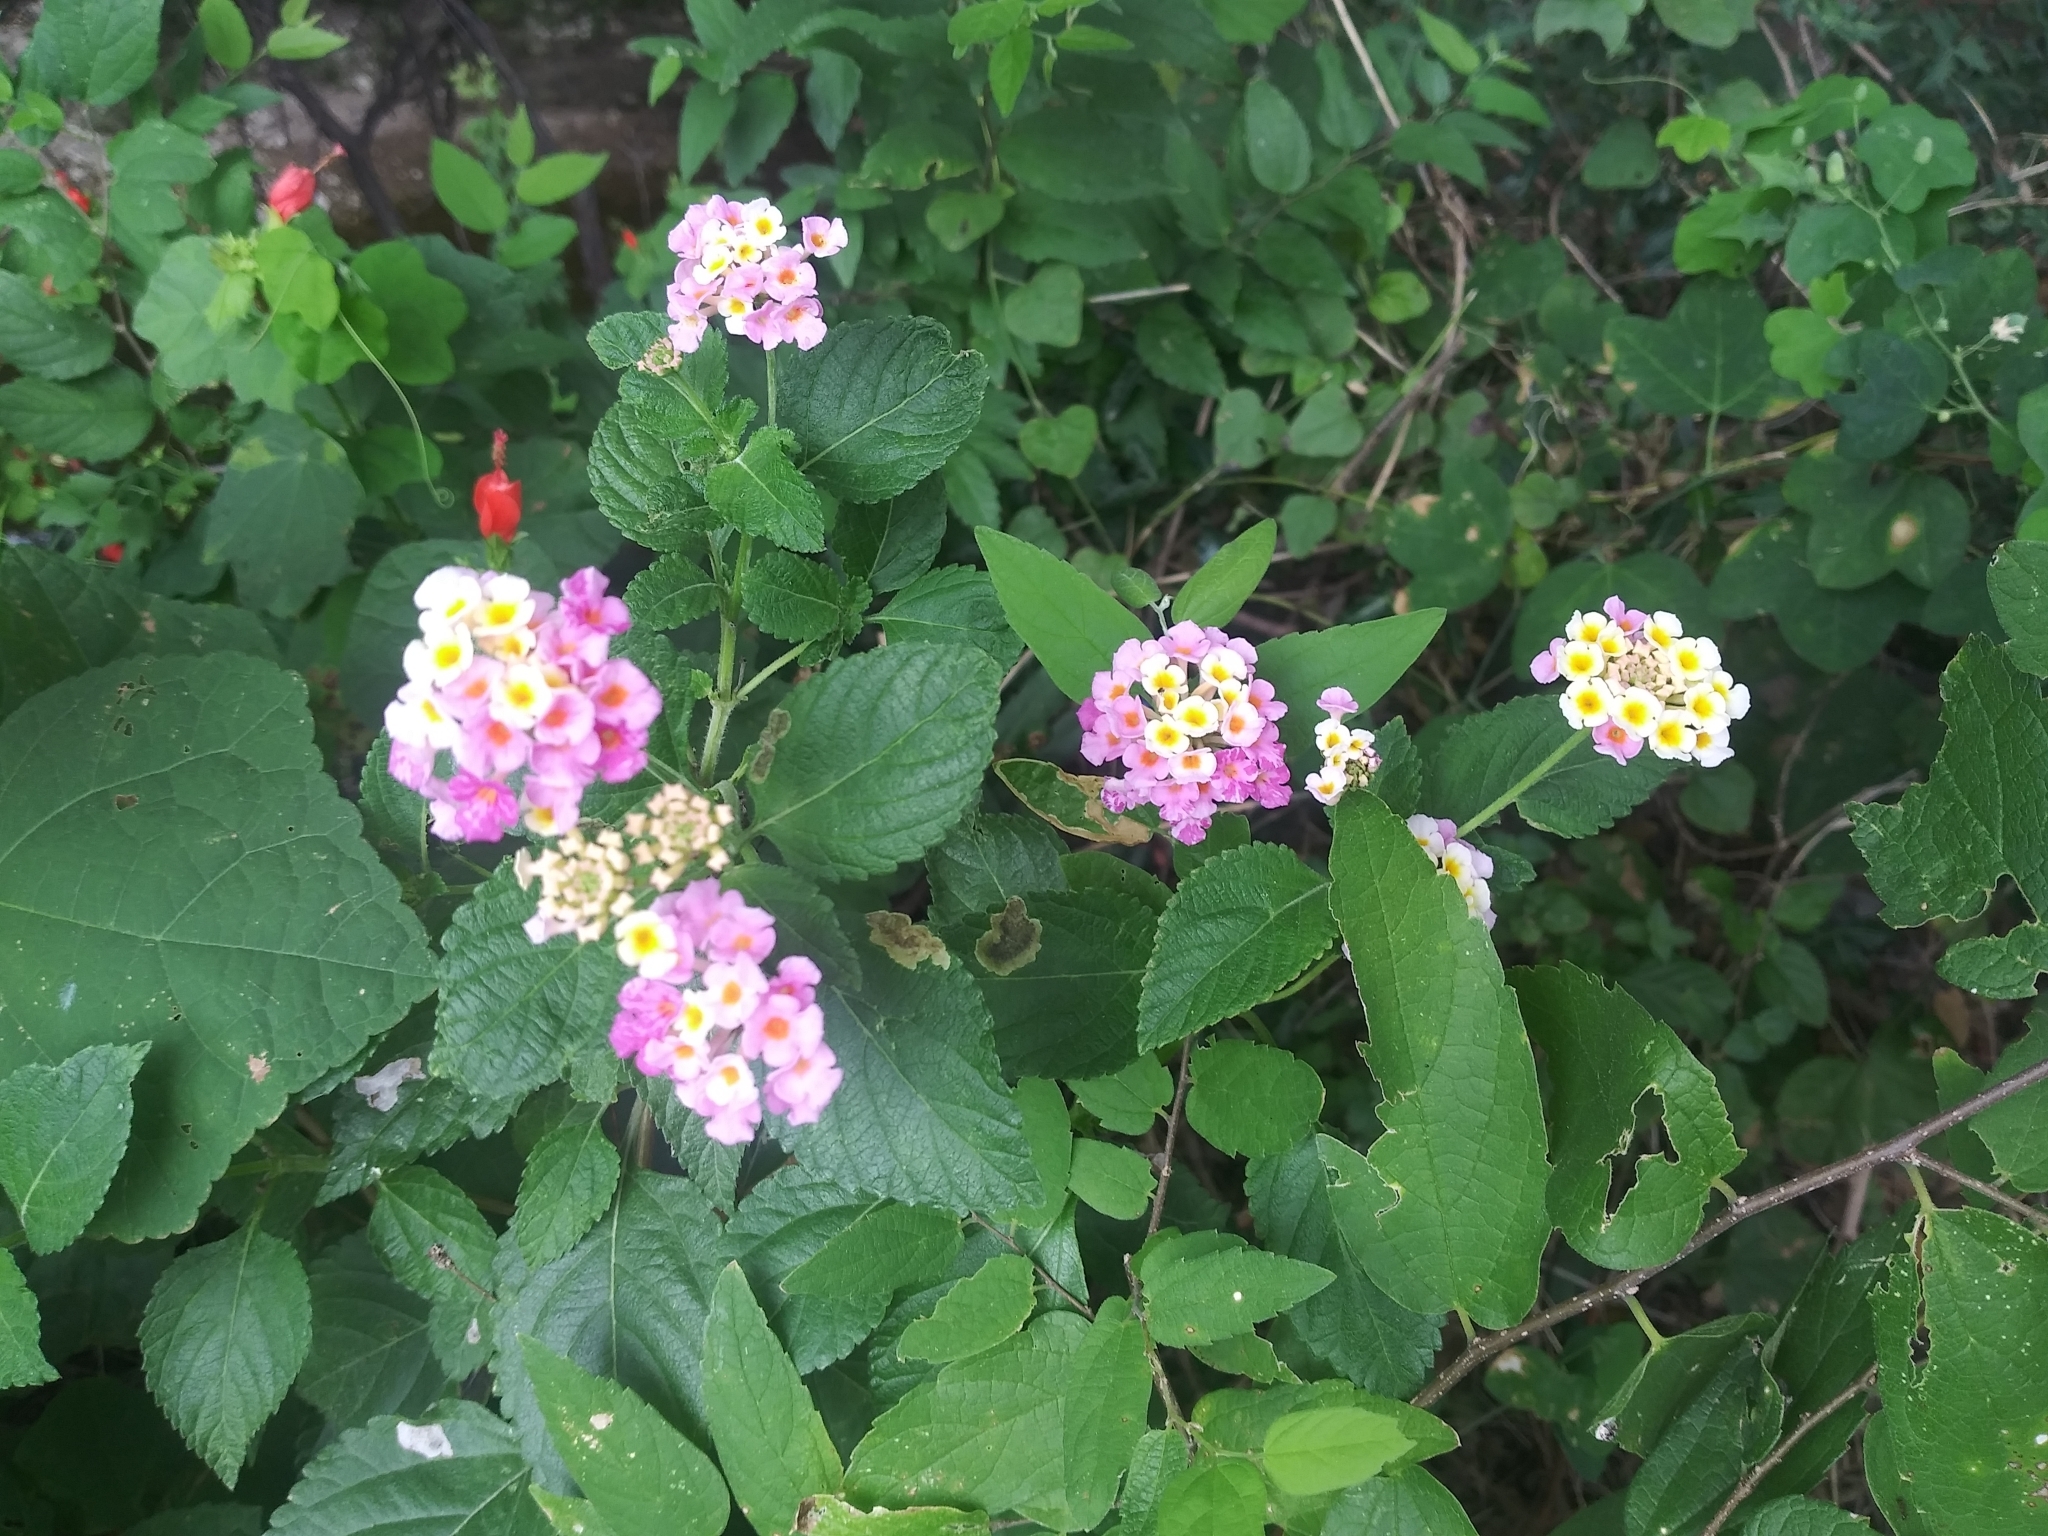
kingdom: Plantae
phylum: Tracheophyta
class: Magnoliopsida
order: Lamiales
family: Verbenaceae
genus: Lantana
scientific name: Lantana strigocamara
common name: Lantana
